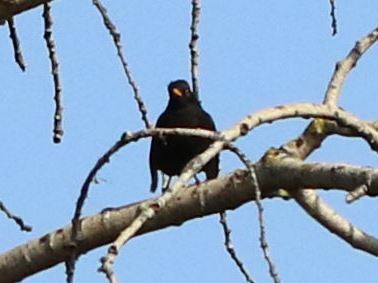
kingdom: Animalia
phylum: Chordata
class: Aves
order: Passeriformes
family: Turdidae
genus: Turdus
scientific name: Turdus merula
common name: Common blackbird
